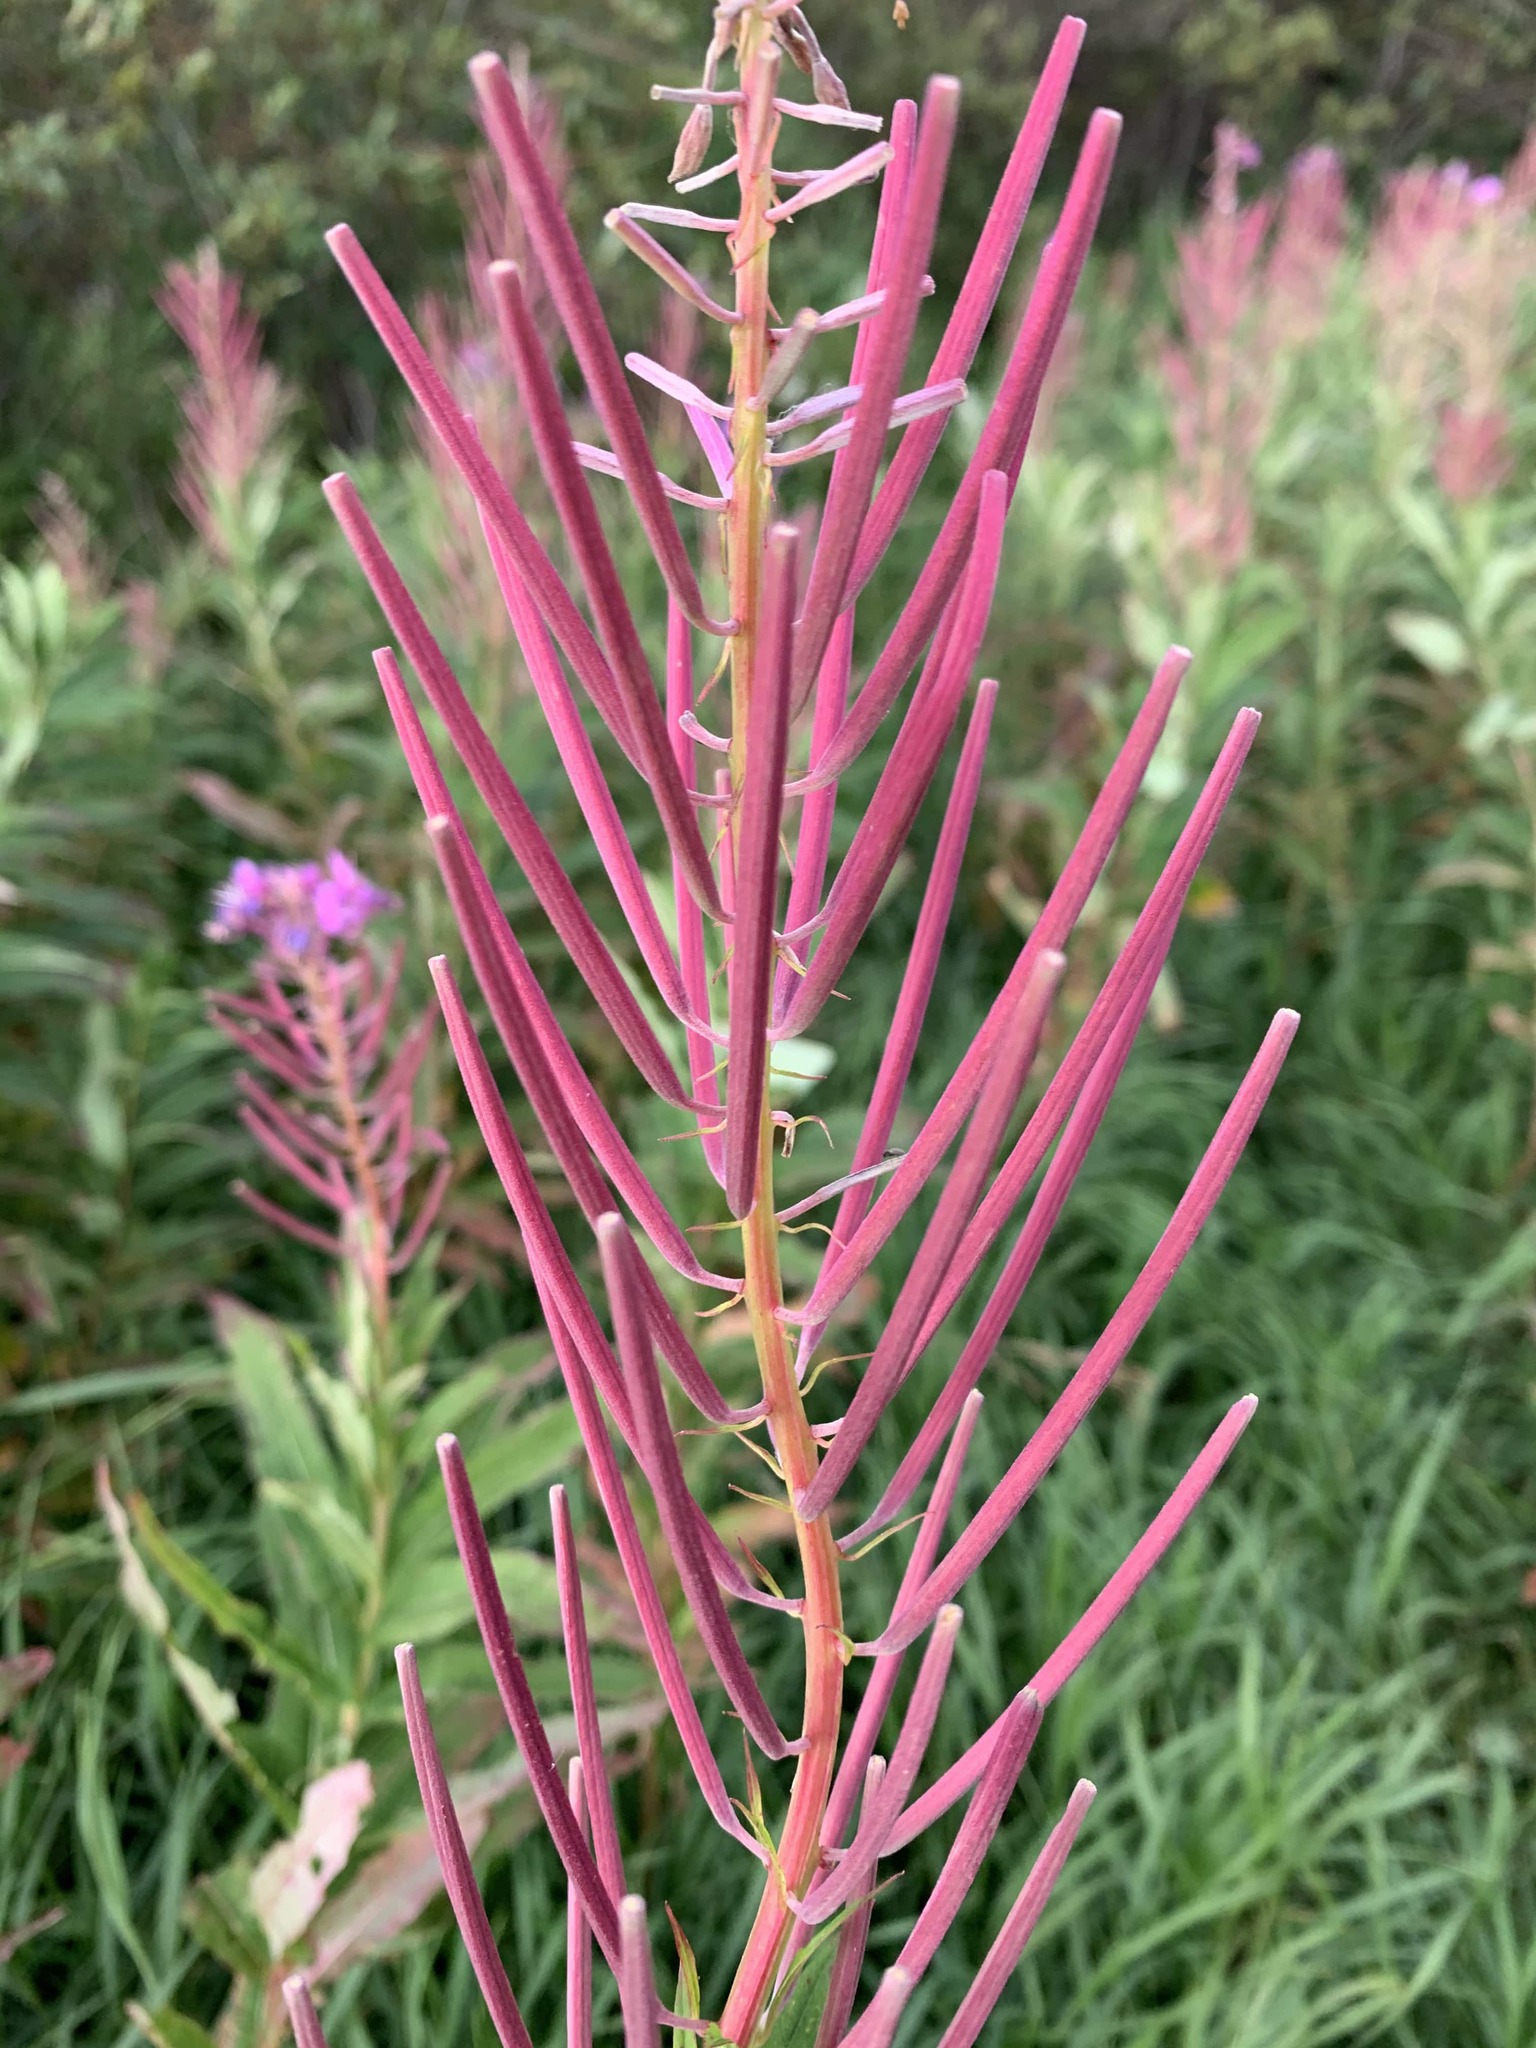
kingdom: Plantae
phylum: Tracheophyta
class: Magnoliopsida
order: Myrtales
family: Onagraceae
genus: Chamaenerion
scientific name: Chamaenerion angustifolium
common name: Fireweed
